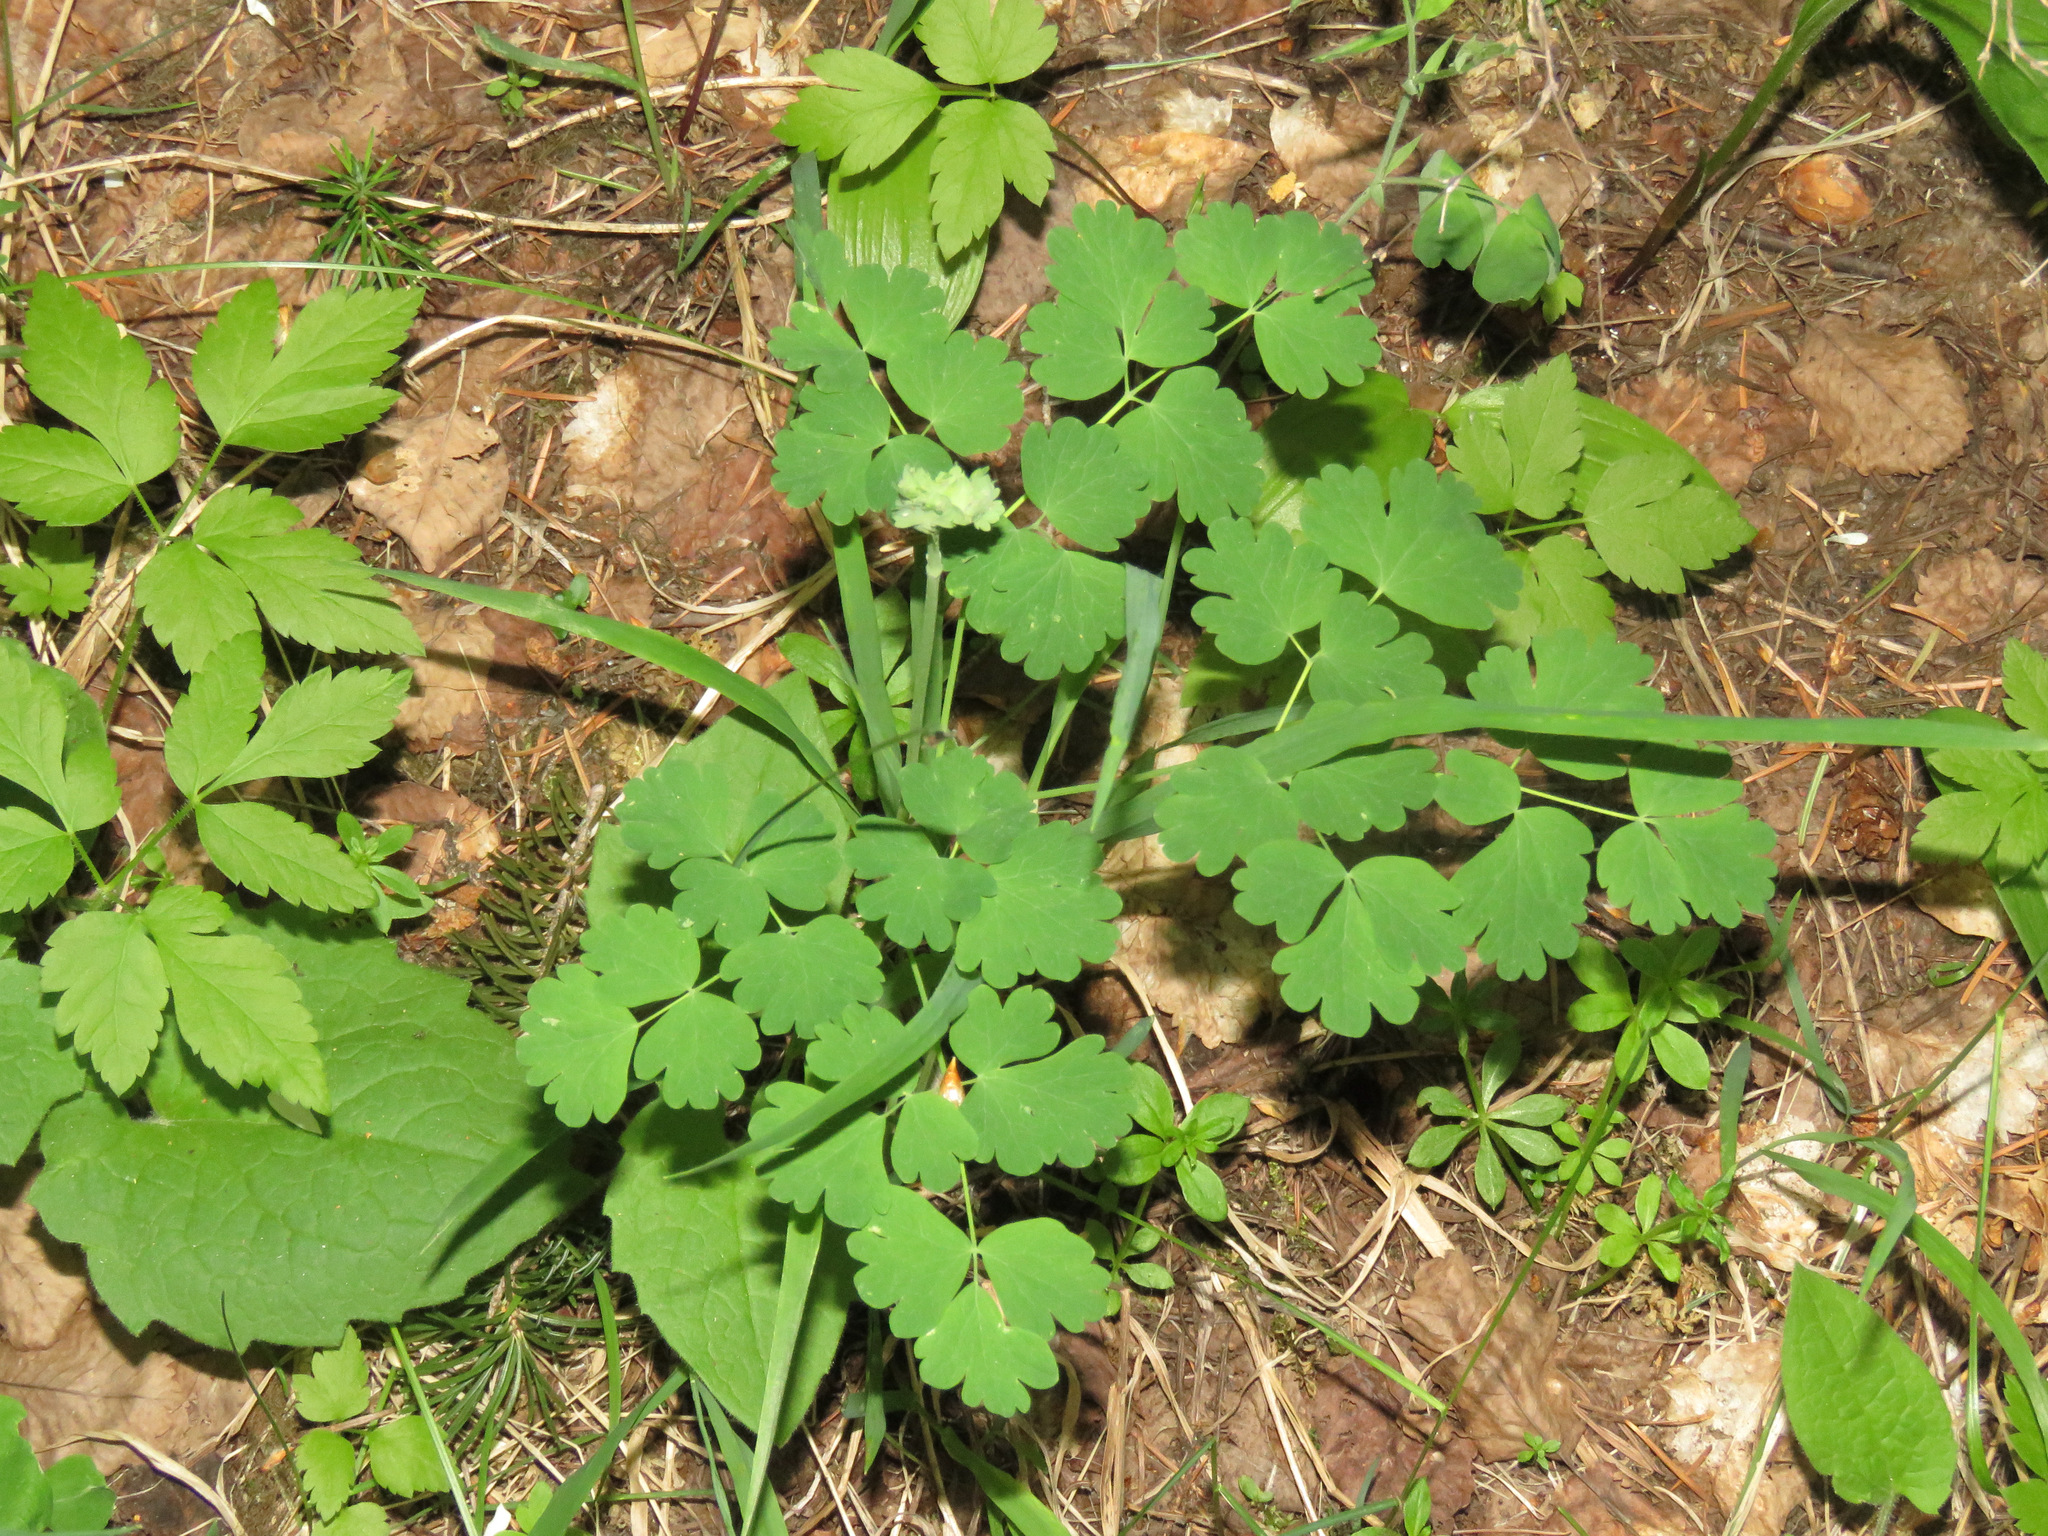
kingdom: Plantae
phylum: Tracheophyta
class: Magnoliopsida
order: Ranunculales
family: Ranunculaceae
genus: Thalictrum
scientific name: Thalictrum occidentale
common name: Western meadow-rue
